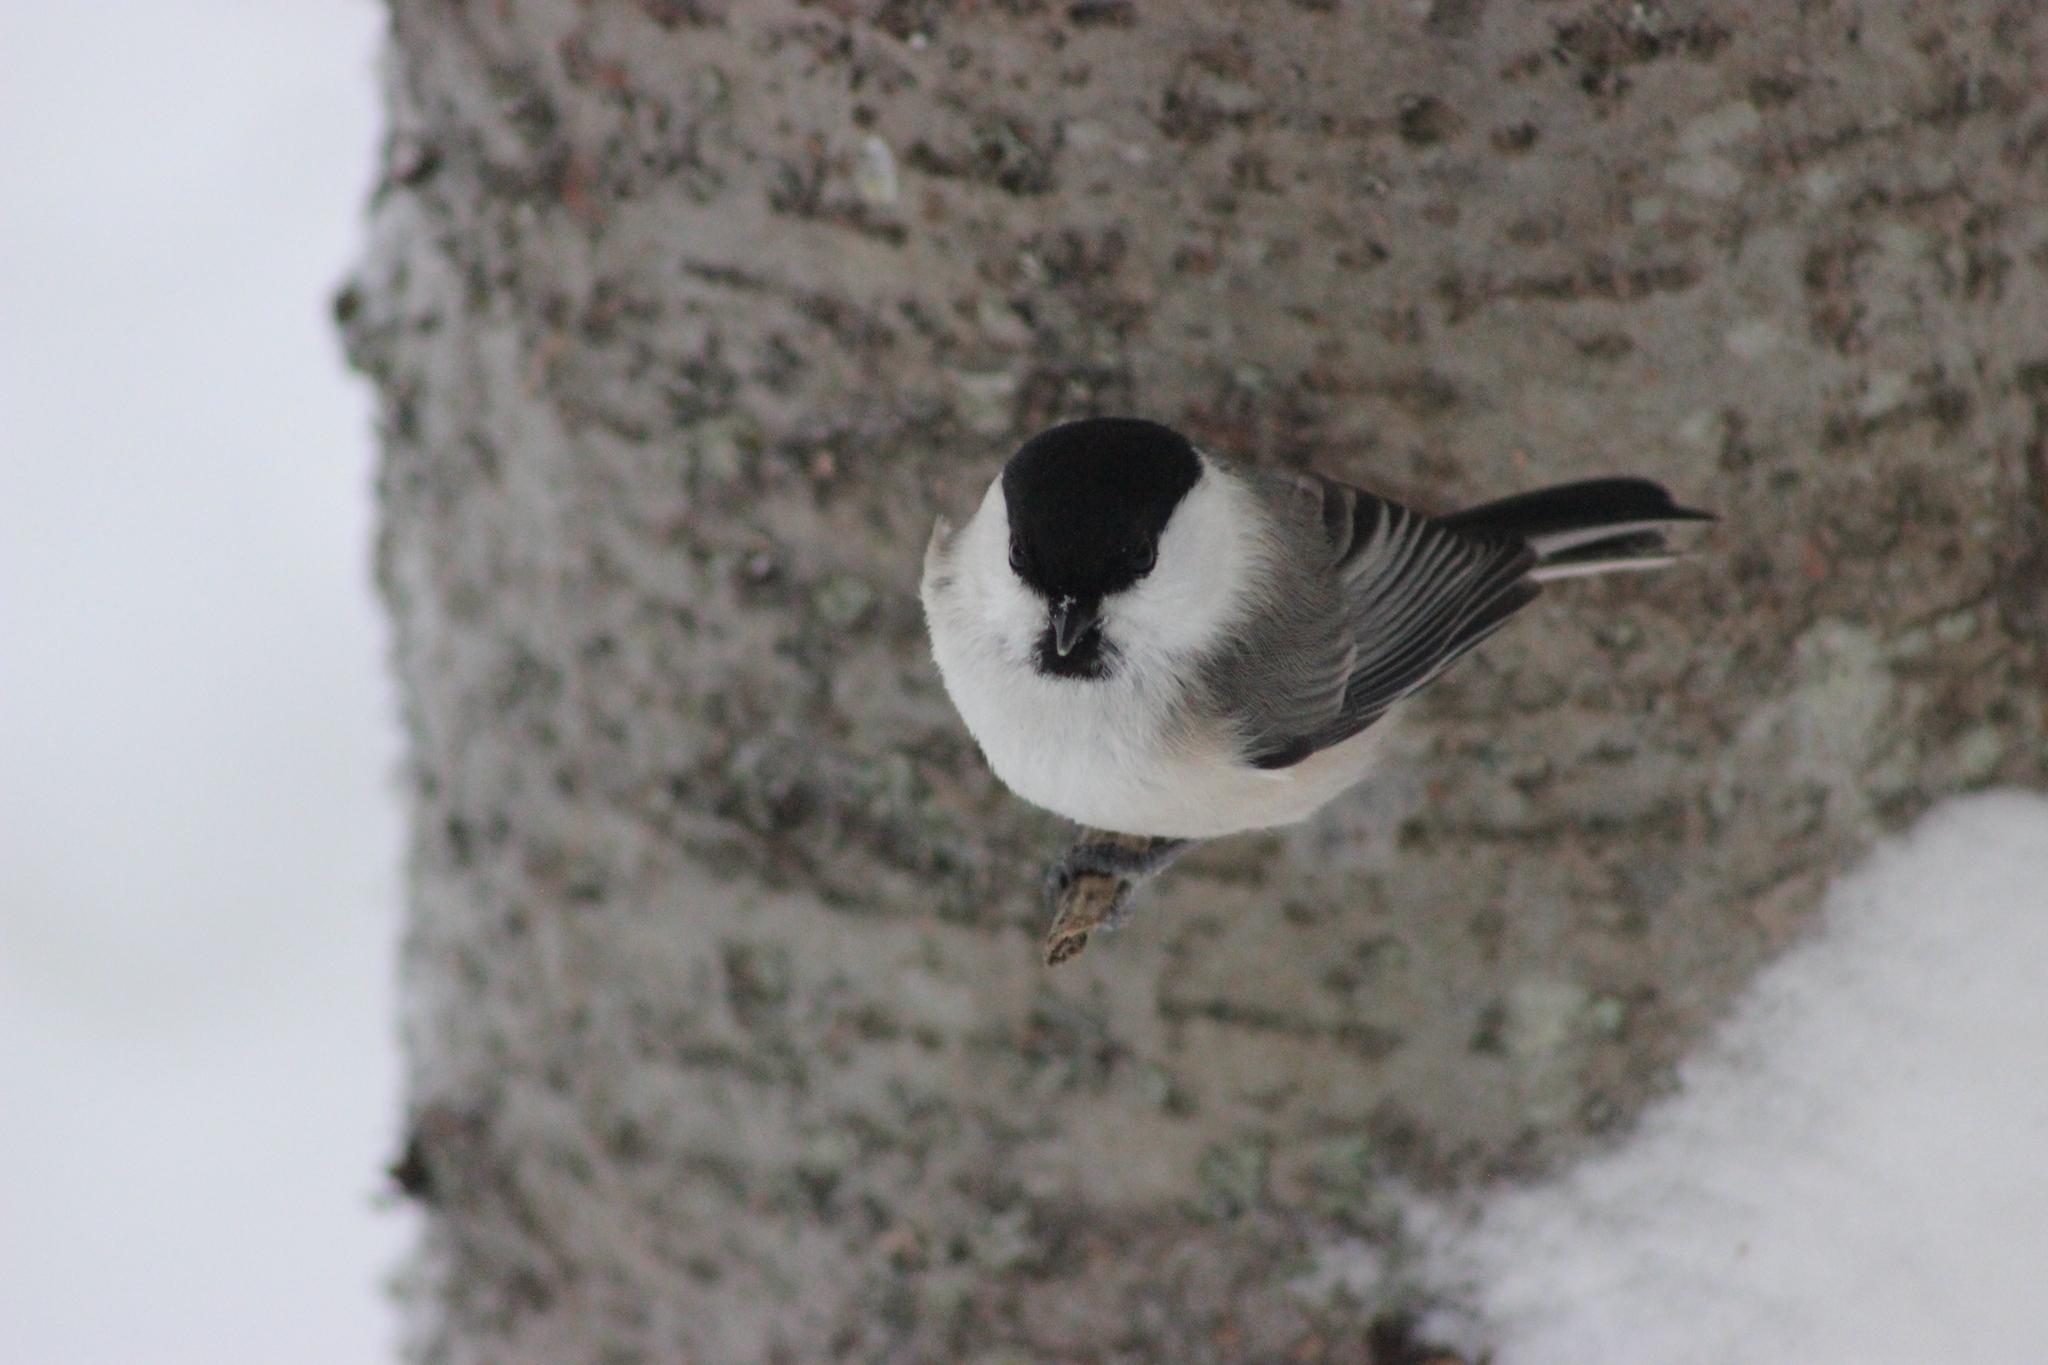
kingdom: Animalia
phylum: Chordata
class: Aves
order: Passeriformes
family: Paridae
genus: Poecile
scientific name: Poecile montanus
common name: Willow tit
